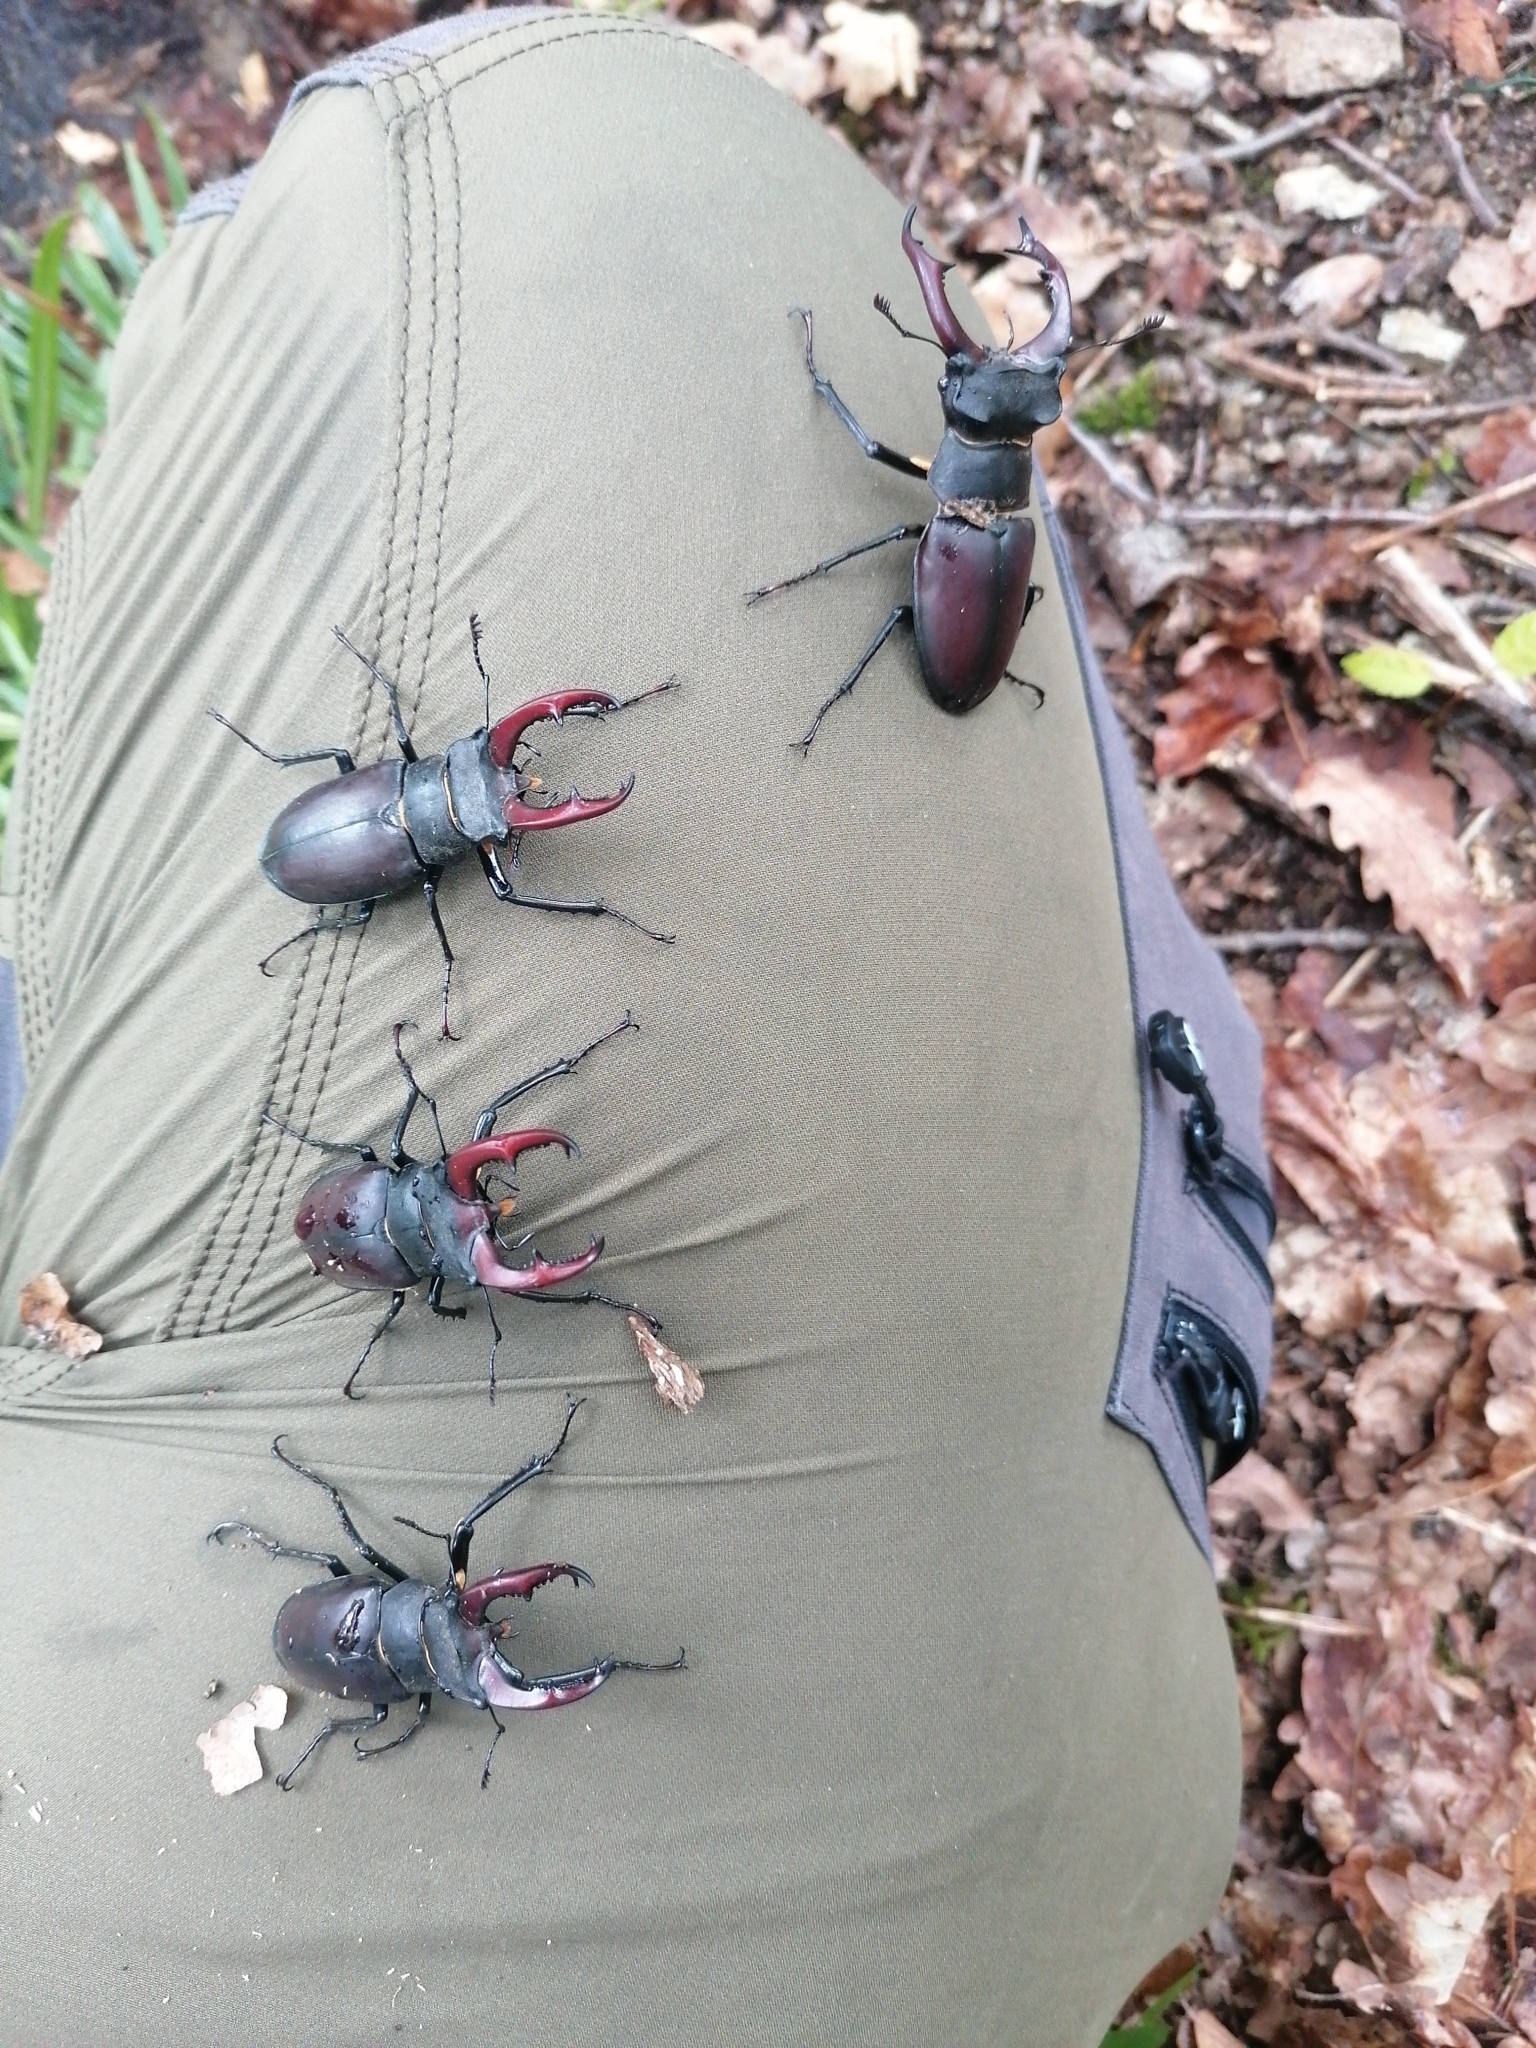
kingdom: Animalia
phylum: Arthropoda
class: Insecta
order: Coleoptera
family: Lucanidae
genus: Lucanus
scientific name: Lucanus cervus
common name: Stag beetle
